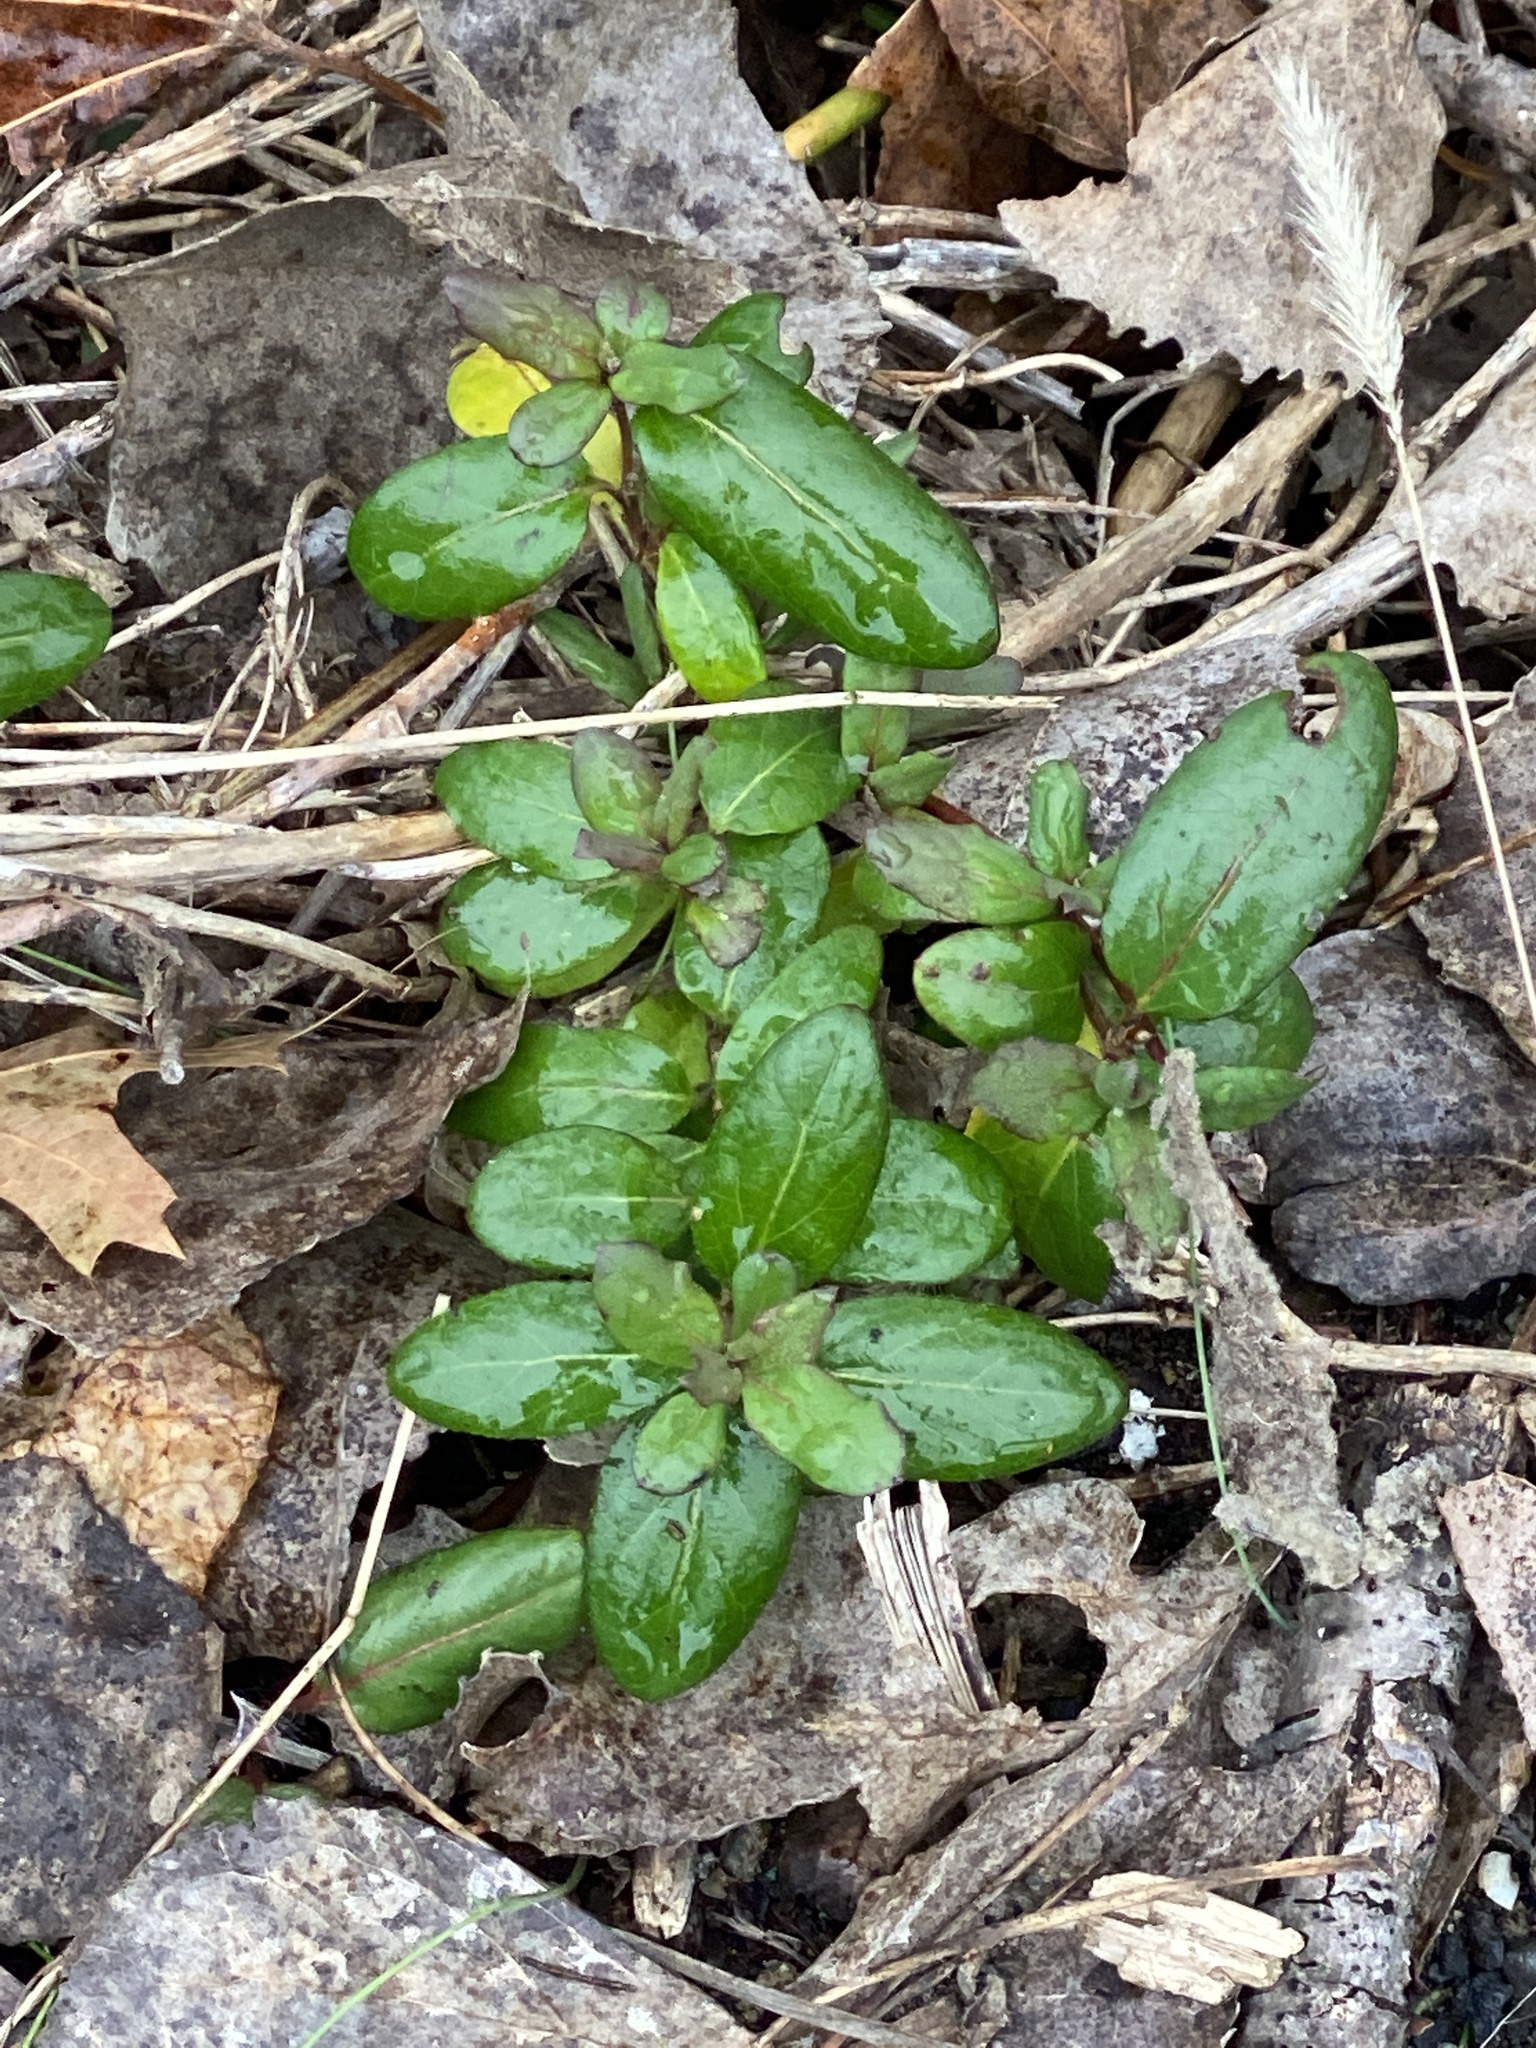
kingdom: Plantae
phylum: Tracheophyta
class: Magnoliopsida
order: Dipsacales
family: Caprifoliaceae
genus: Lonicera
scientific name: Lonicera japonica
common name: Japanese honeysuckle
